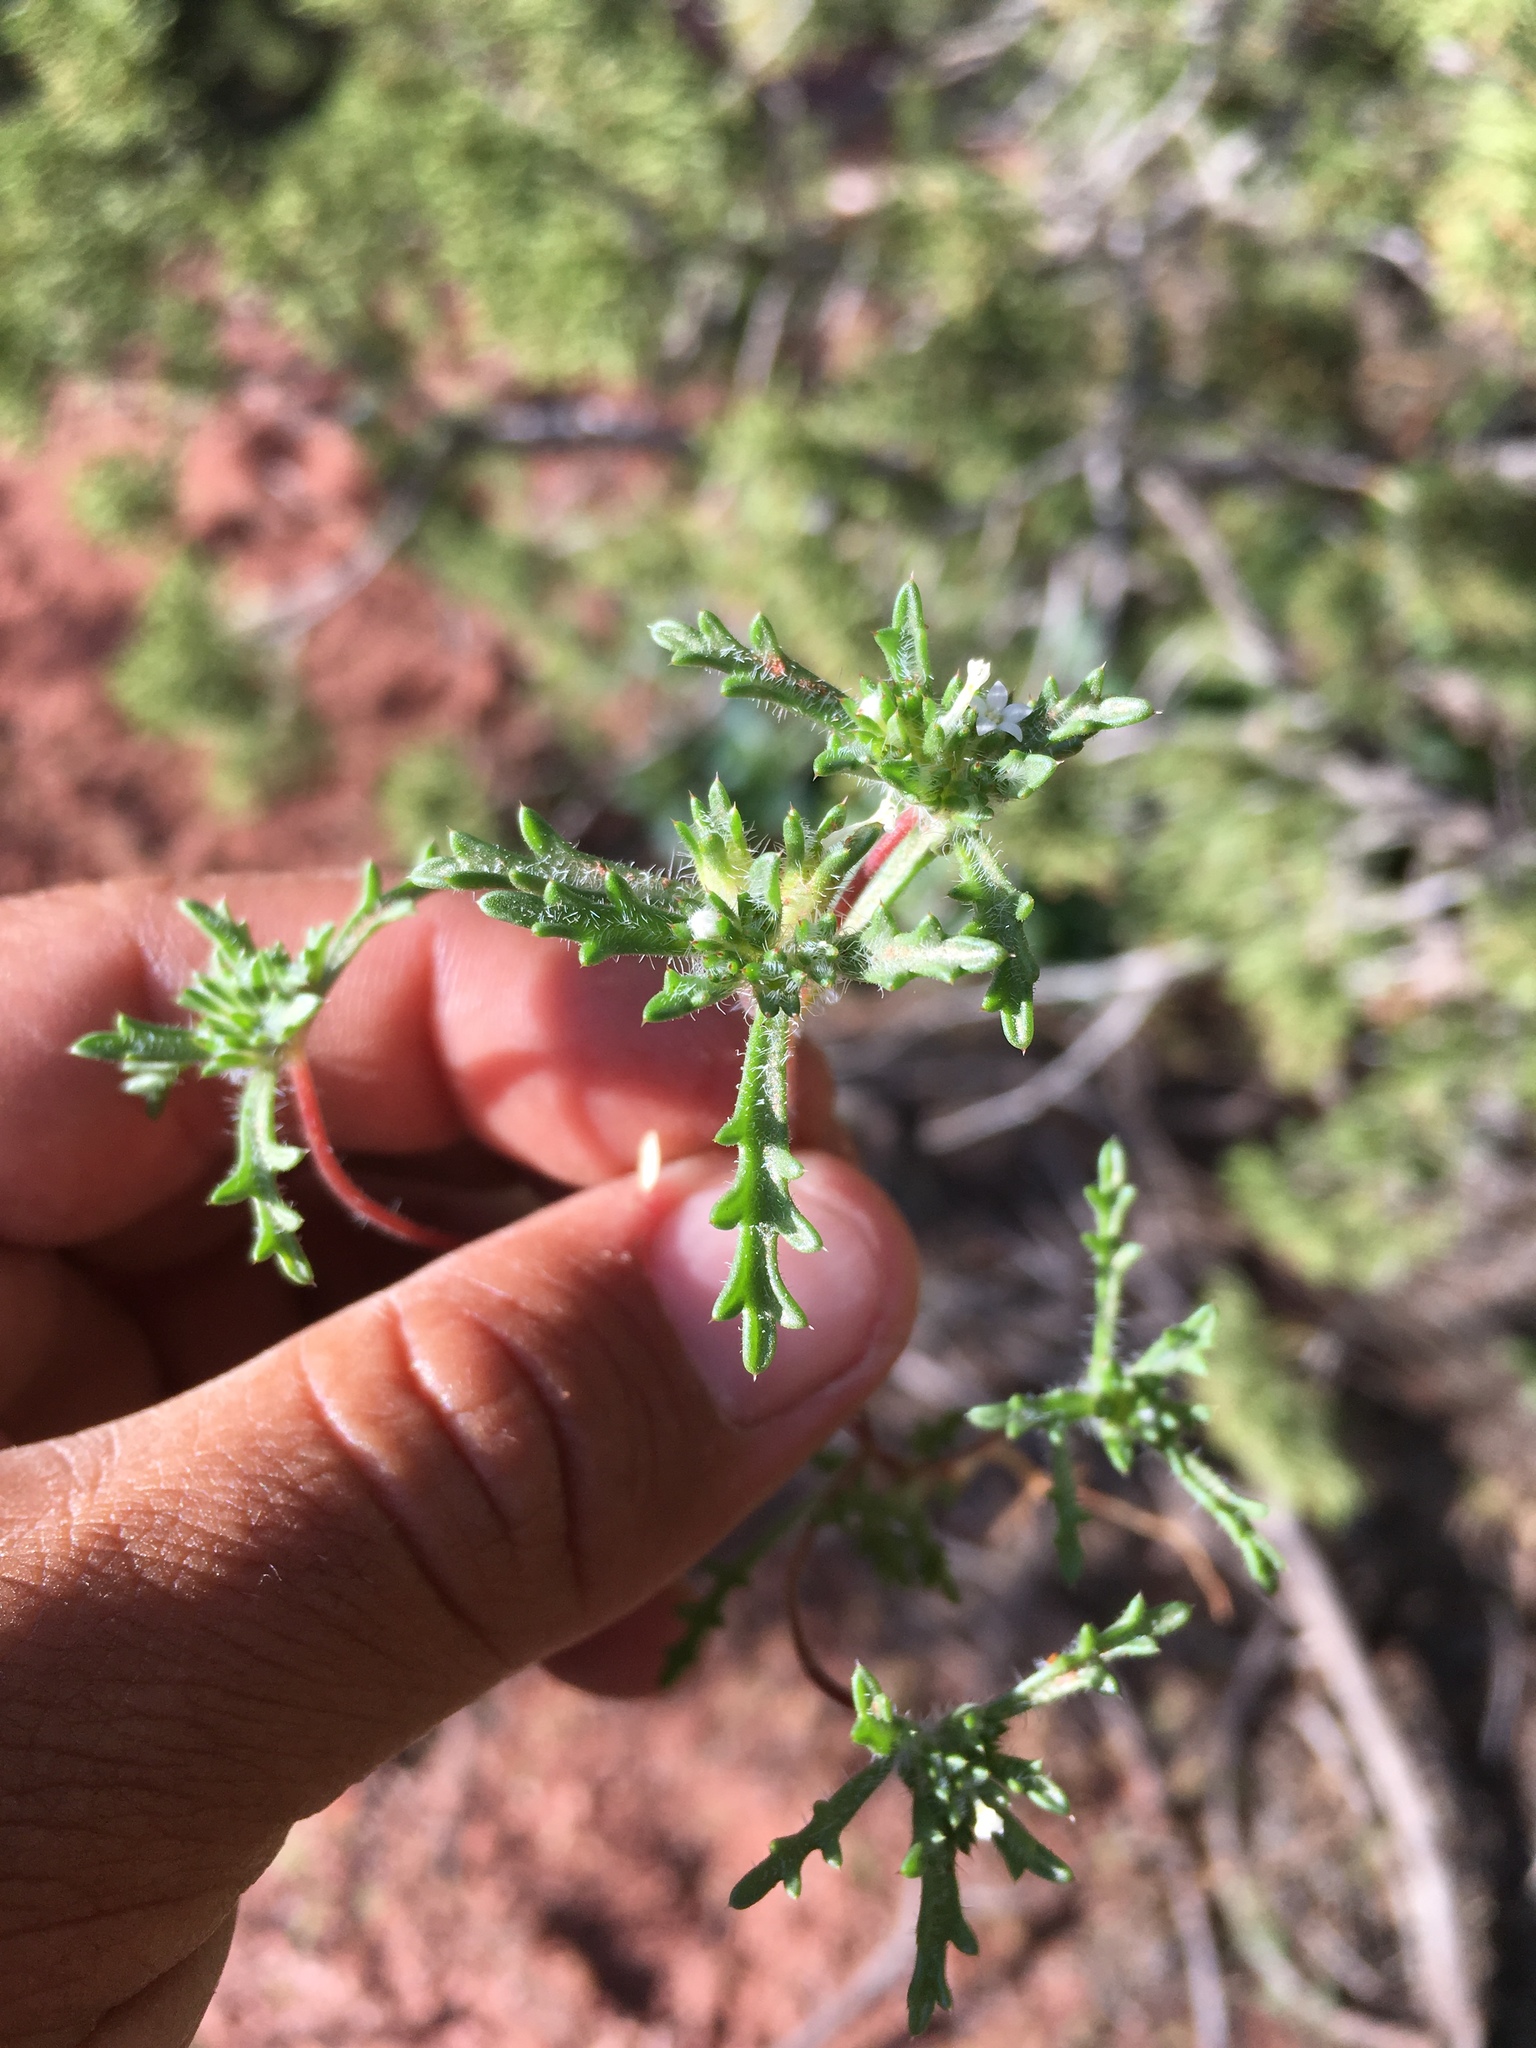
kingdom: Plantae
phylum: Tracheophyta
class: Magnoliopsida
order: Ericales
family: Polemoniaceae
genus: Ipomopsis
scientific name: Ipomopsis polycladon
